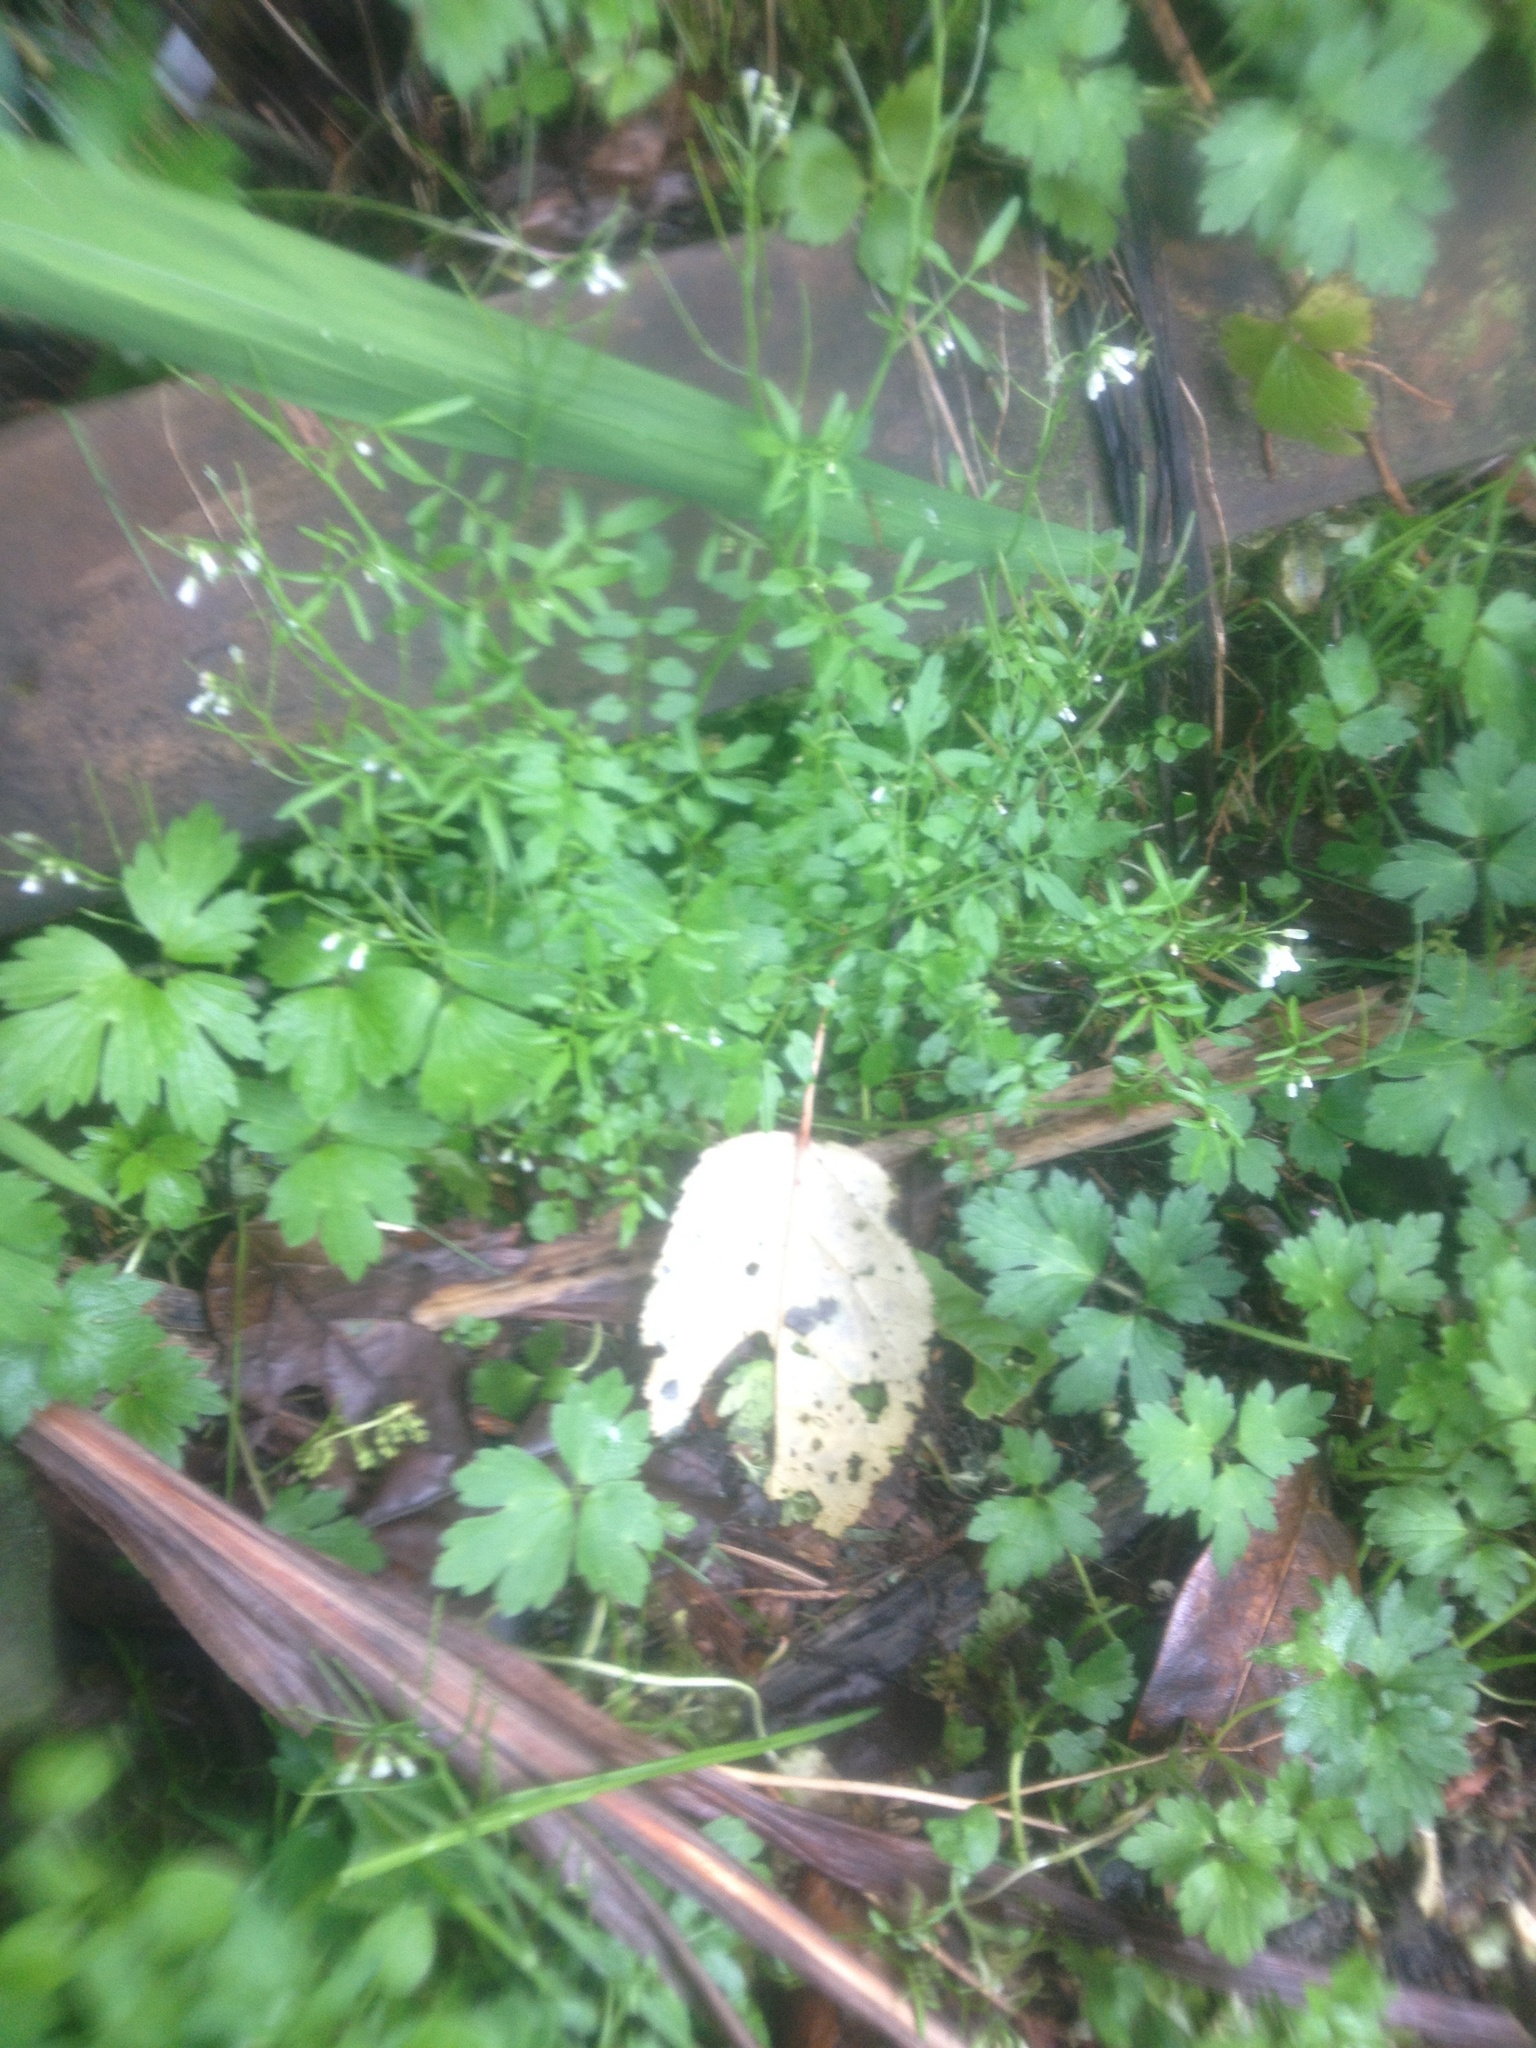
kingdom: Plantae
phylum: Tracheophyta
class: Magnoliopsida
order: Brassicales
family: Brassicaceae
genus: Cardamine
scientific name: Cardamine flexuosa
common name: Woodland bittercress
